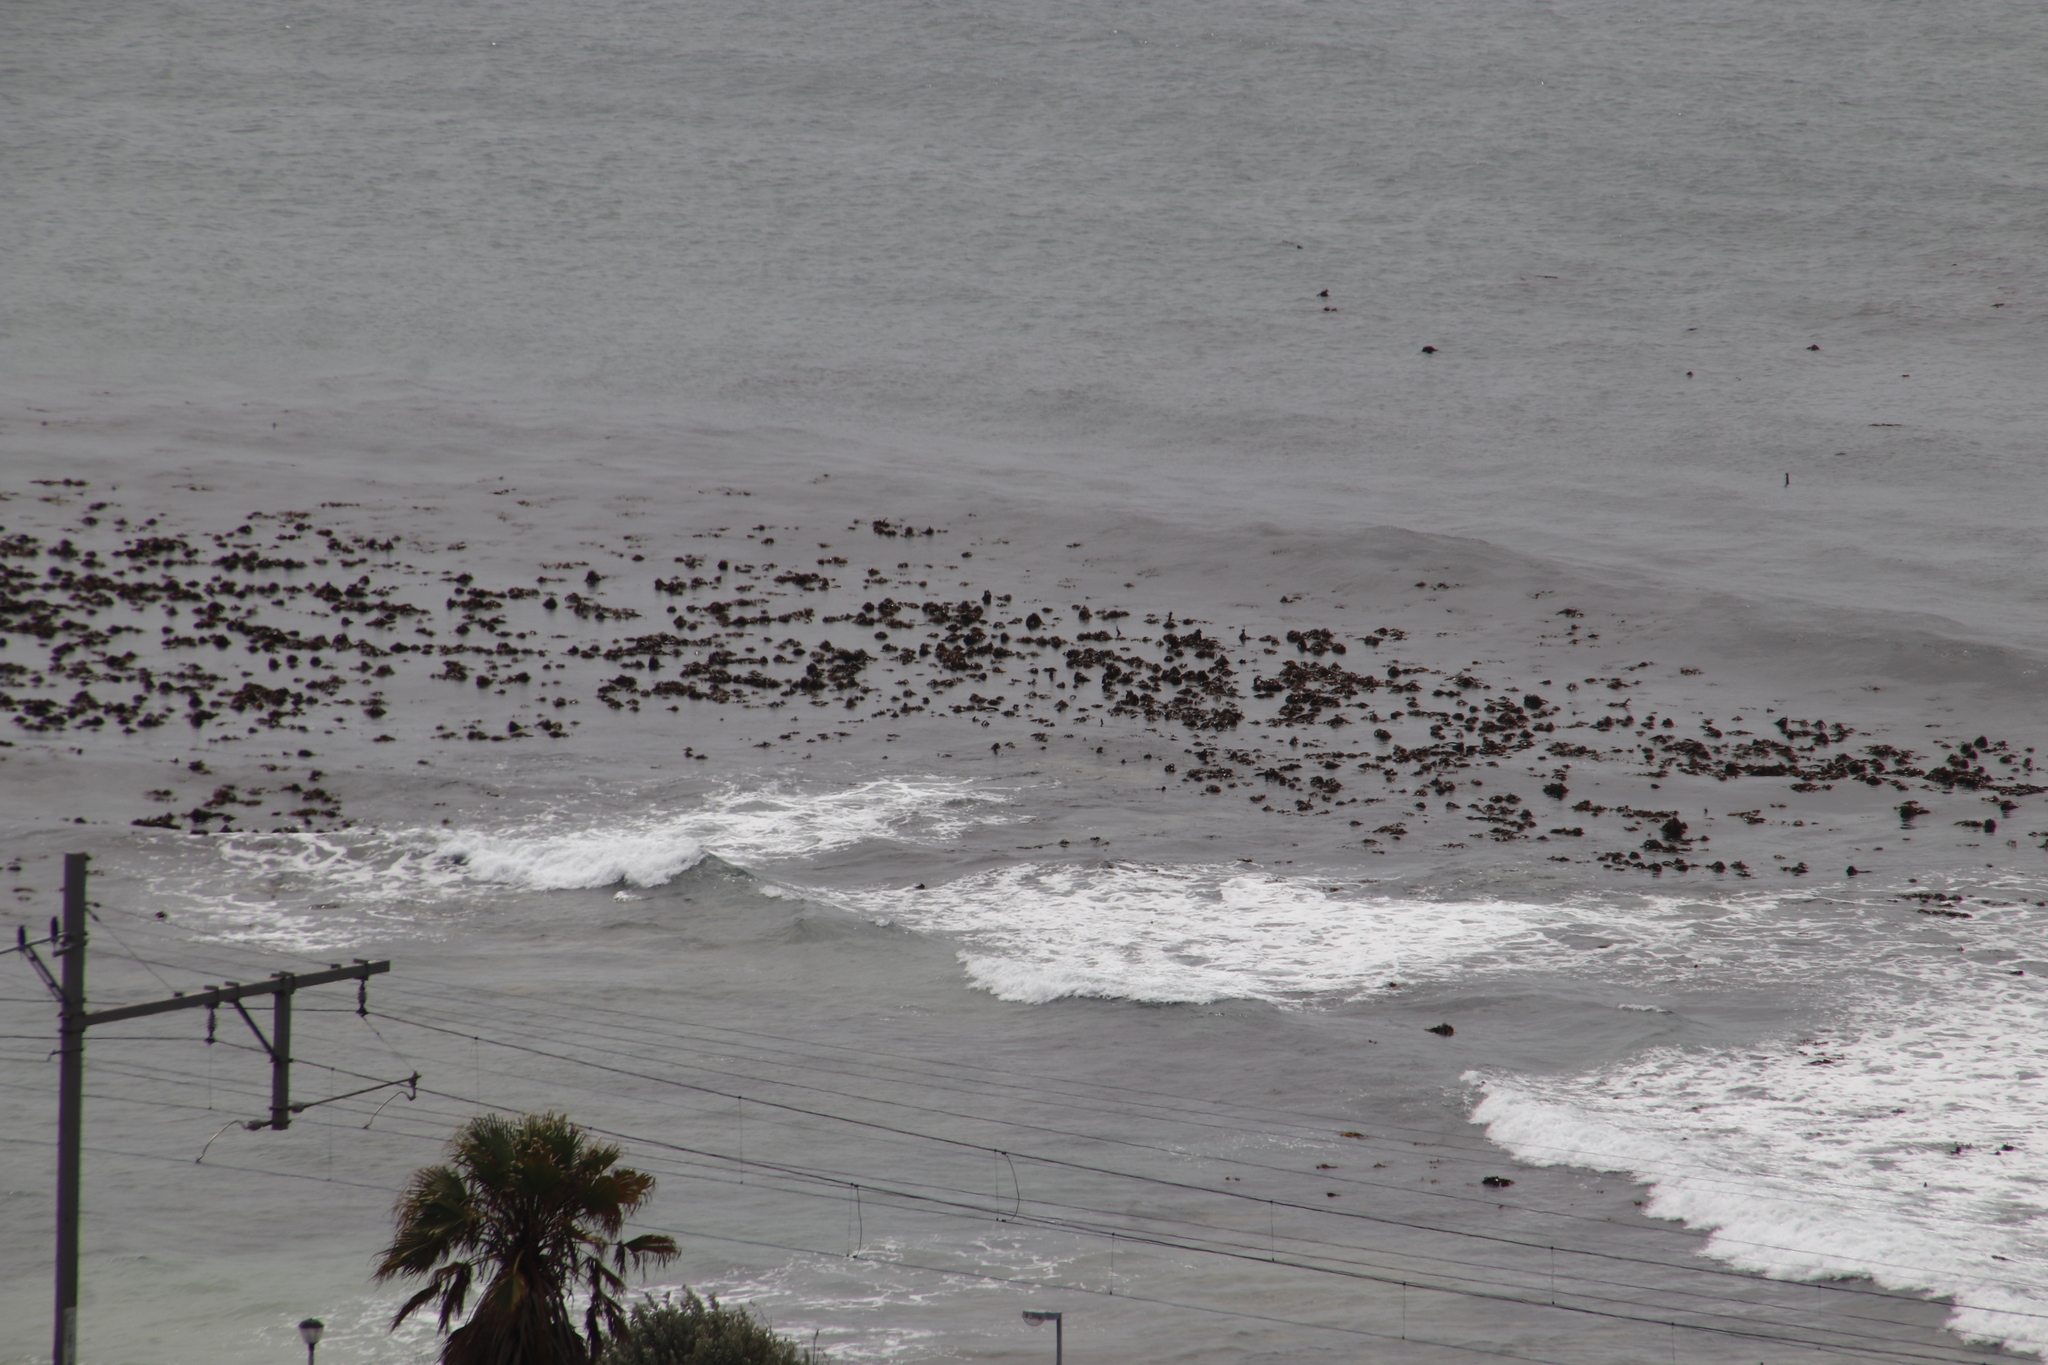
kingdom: Chromista
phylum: Ochrophyta
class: Phaeophyceae
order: Laminariales
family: Lessoniaceae
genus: Ecklonia
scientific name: Ecklonia
